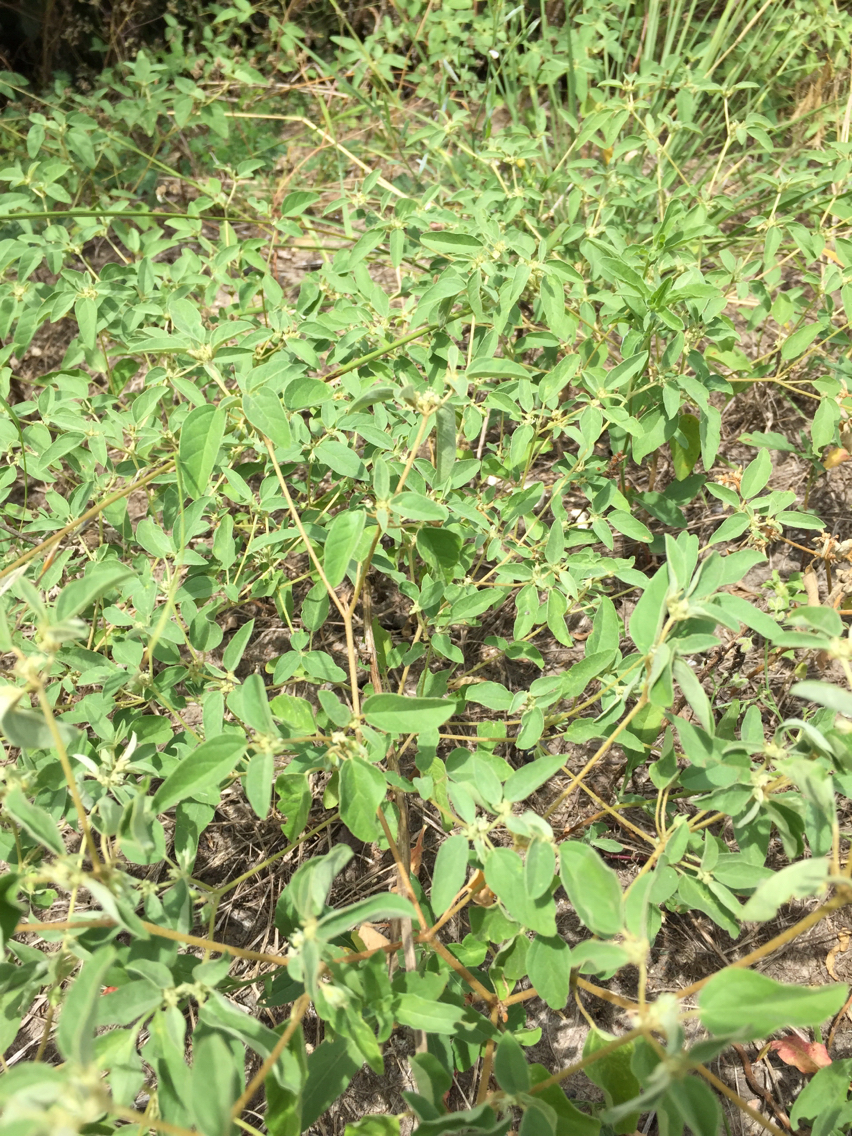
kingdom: Plantae
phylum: Tracheophyta
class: Magnoliopsida
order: Malpighiales
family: Euphorbiaceae
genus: Croton
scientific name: Croton monanthogynus
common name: One-seed croton
